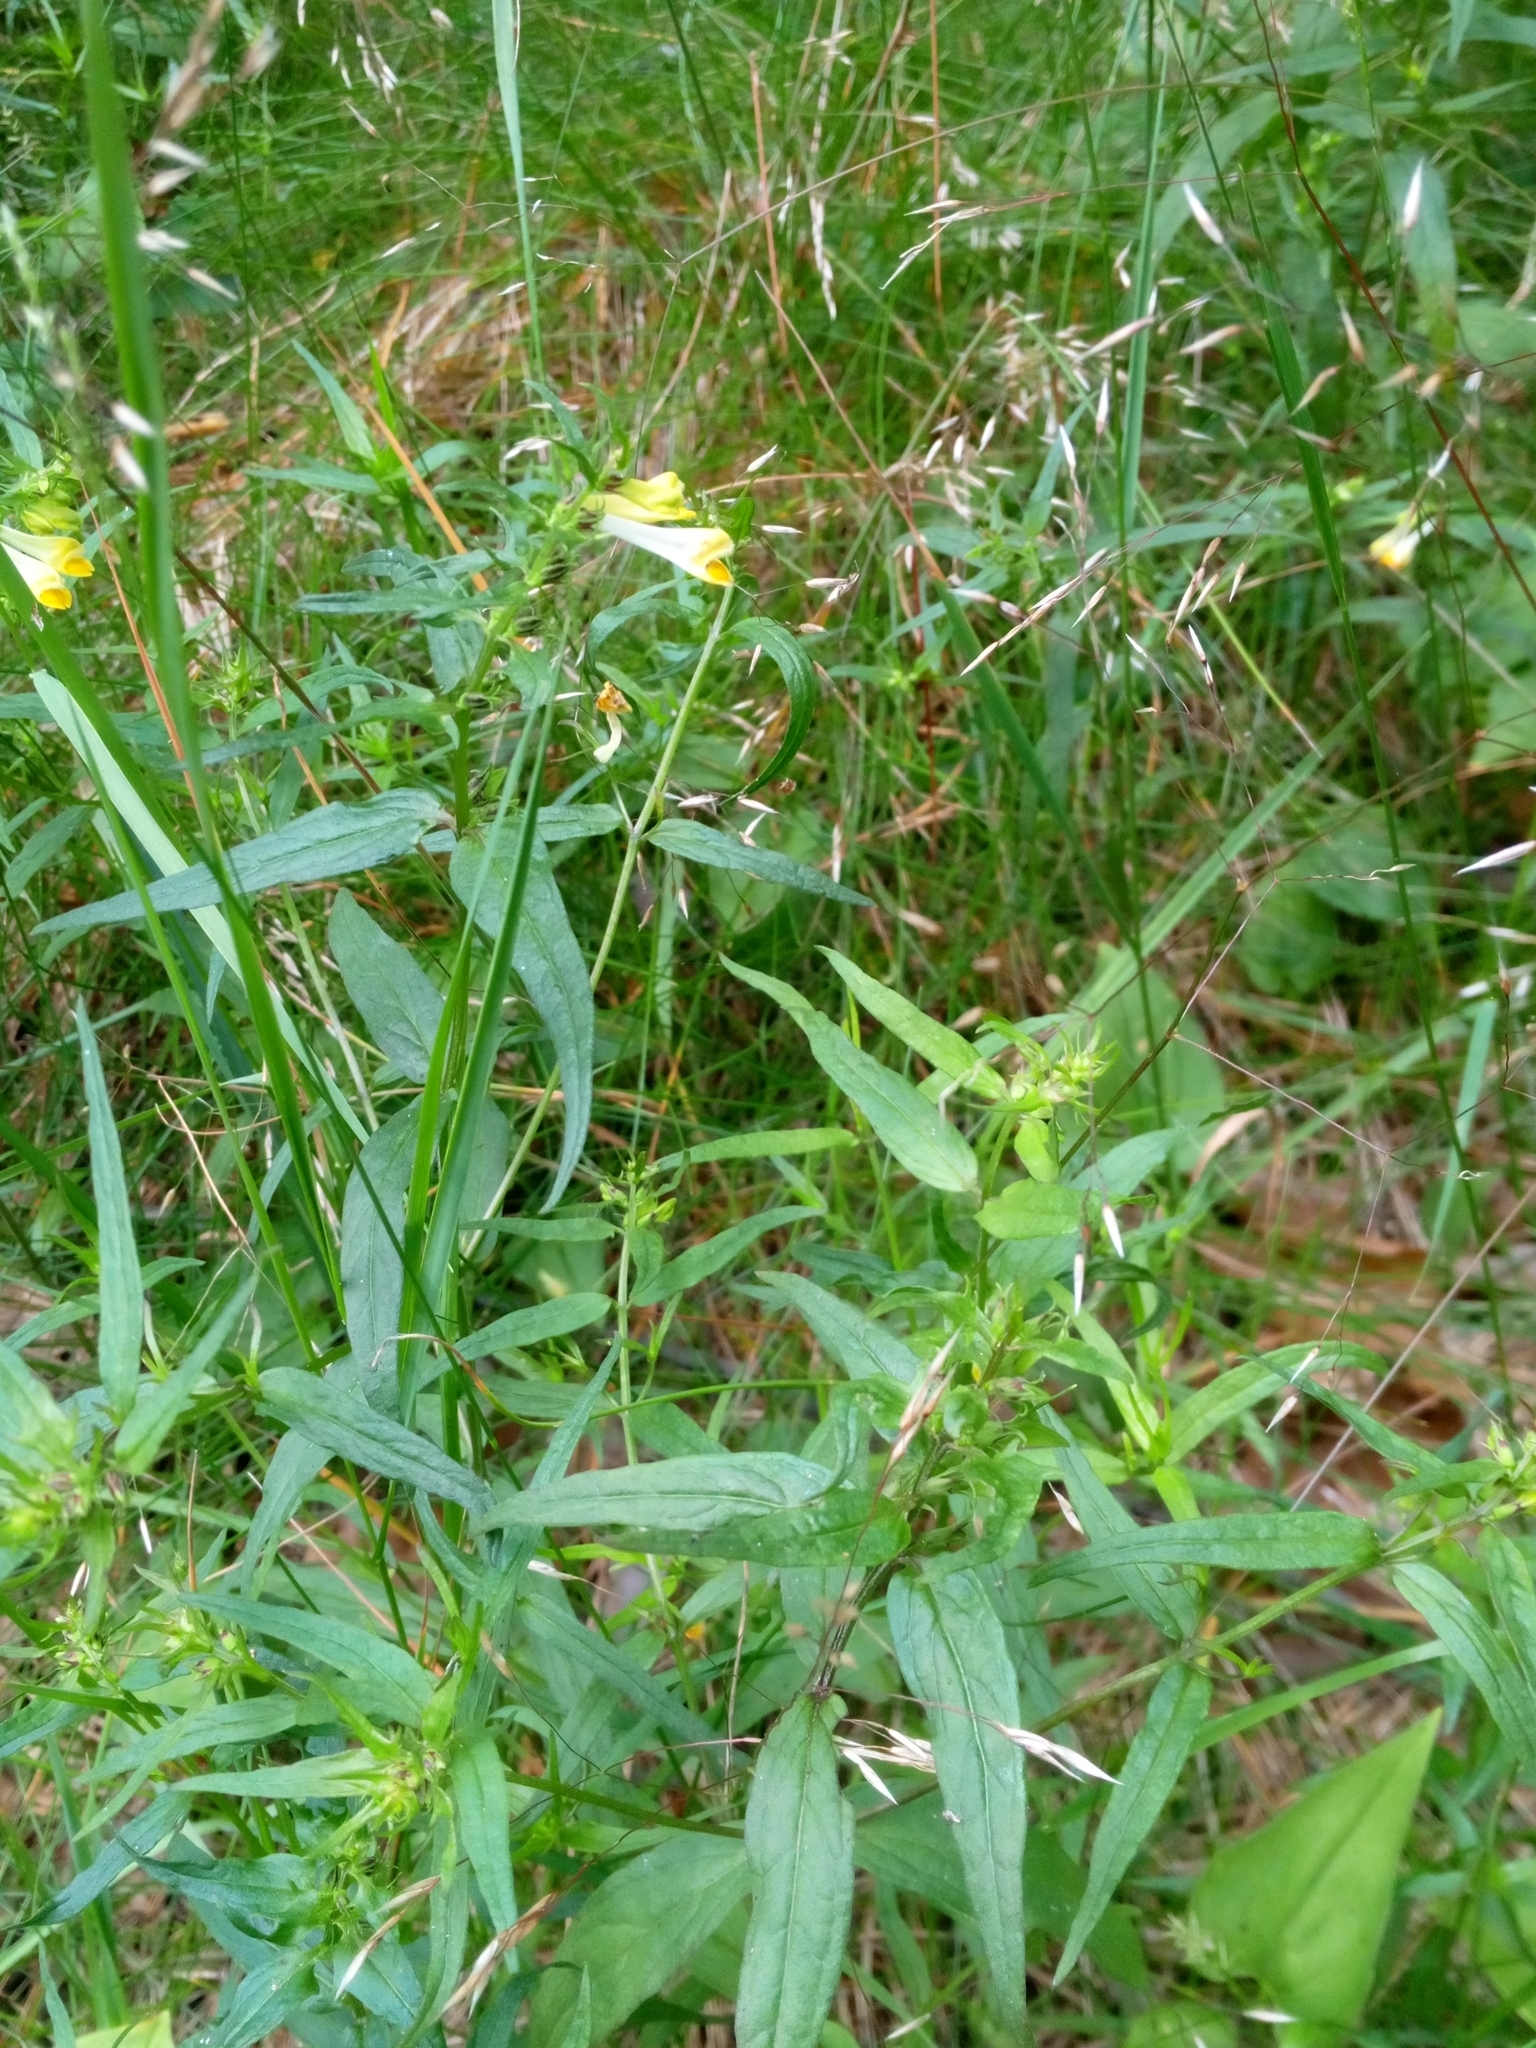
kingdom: Plantae
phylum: Tracheophyta
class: Magnoliopsida
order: Lamiales
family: Orobanchaceae
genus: Melampyrum
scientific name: Melampyrum pratense
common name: Common cow-wheat
